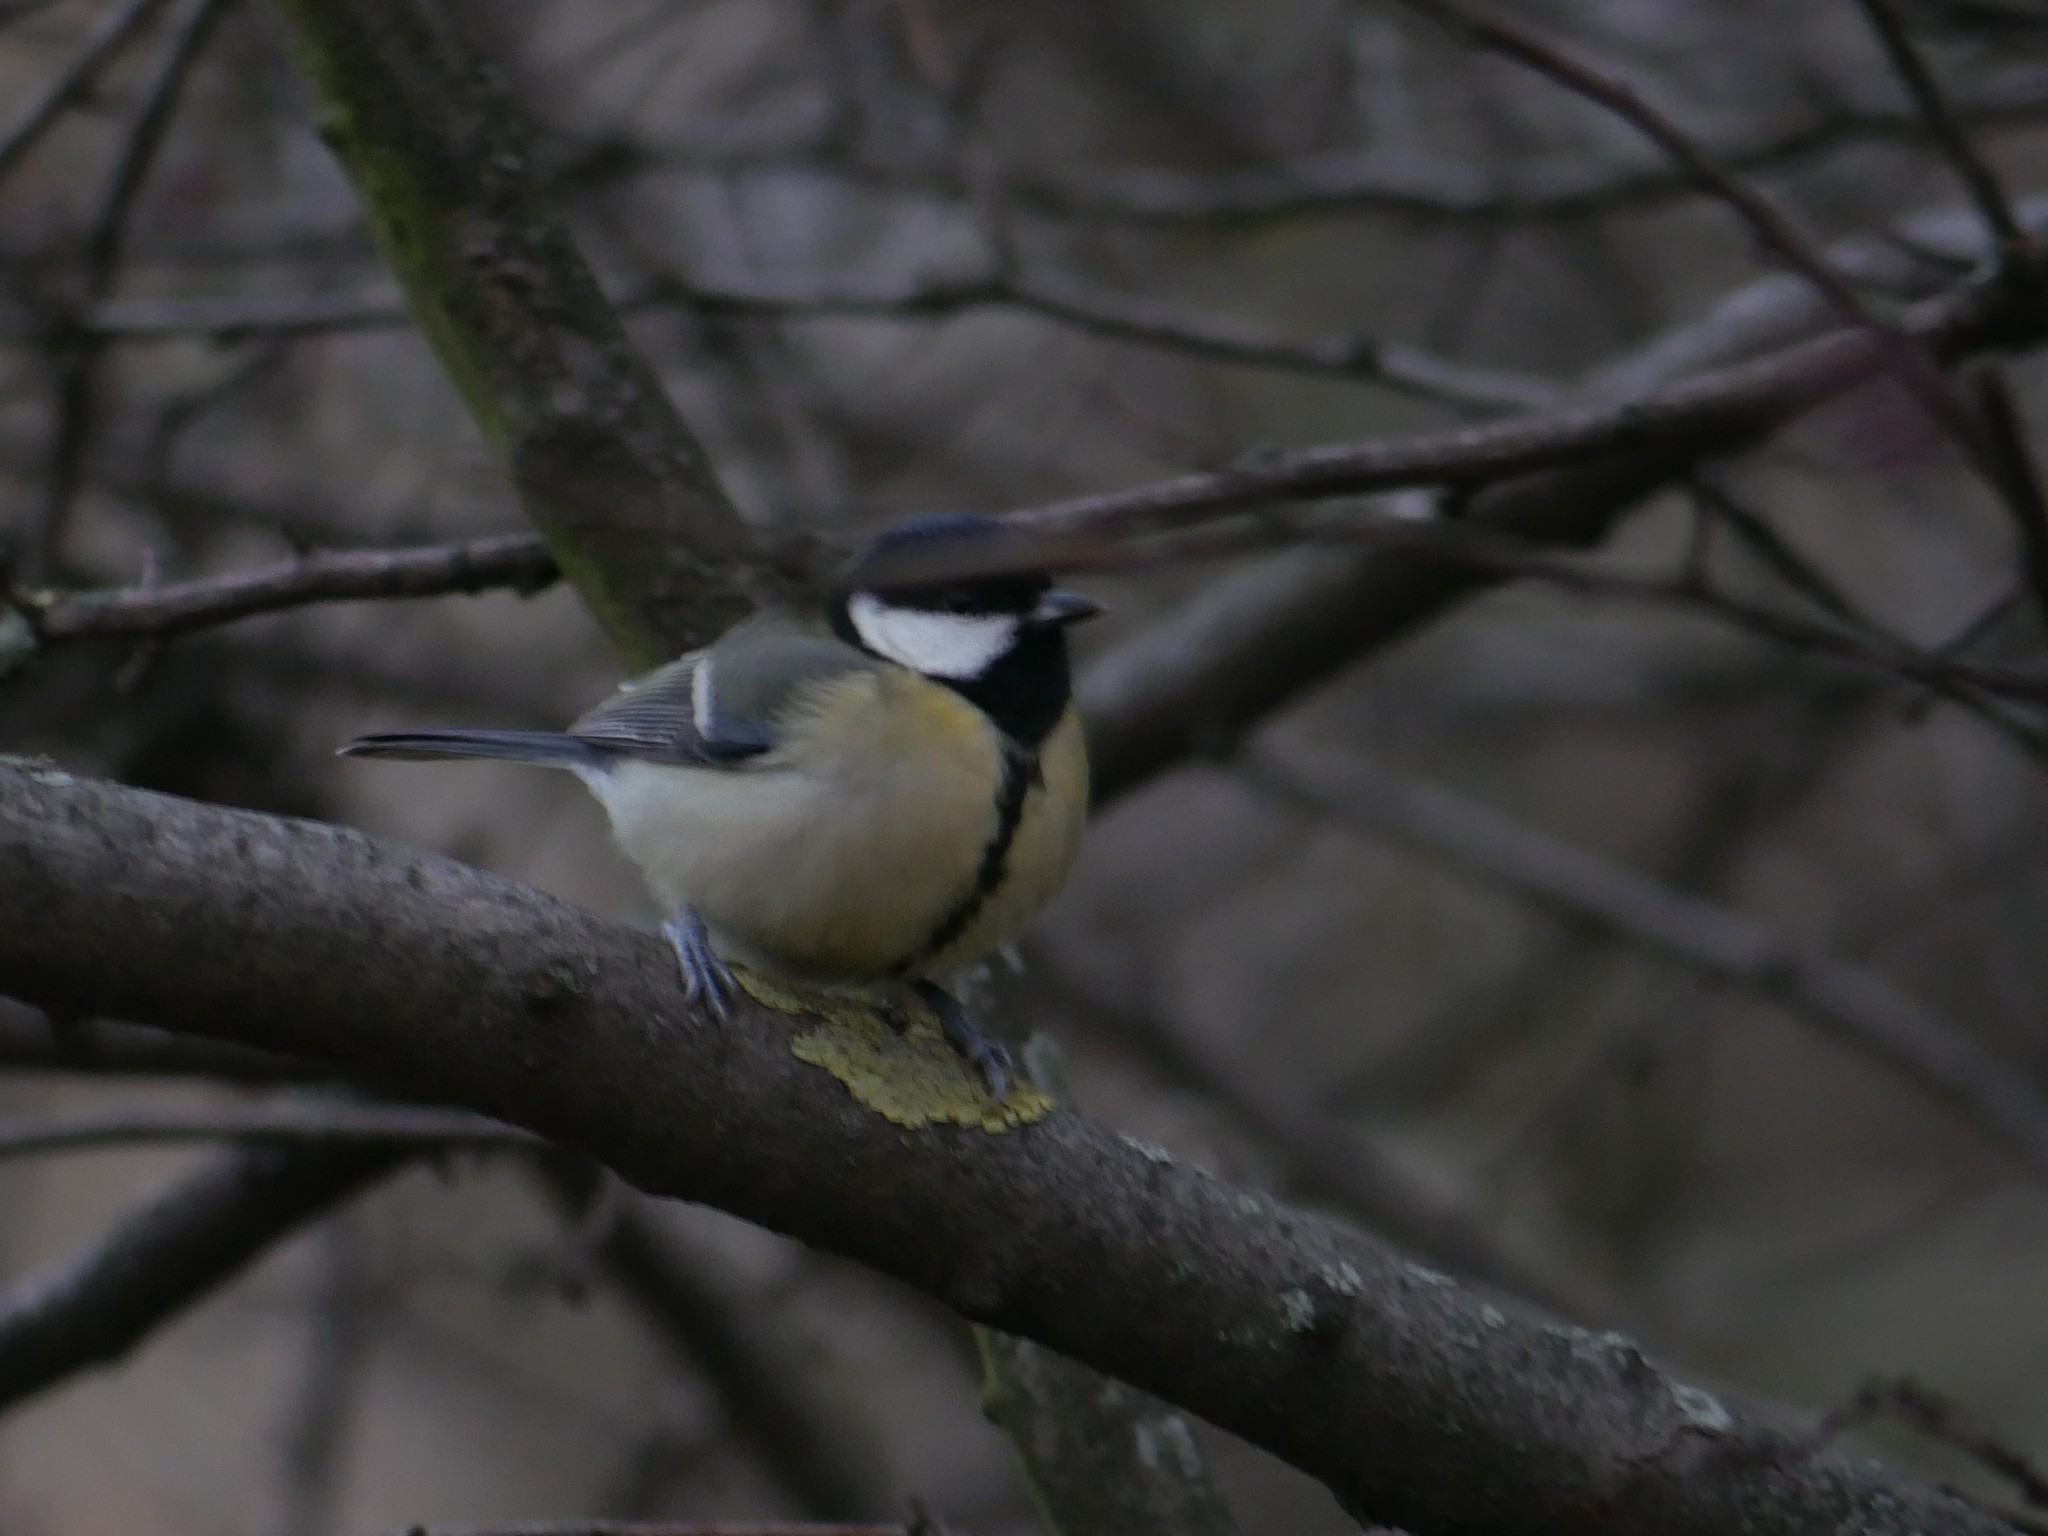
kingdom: Animalia
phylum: Chordata
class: Aves
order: Passeriformes
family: Paridae
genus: Parus
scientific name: Parus major
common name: Great tit
